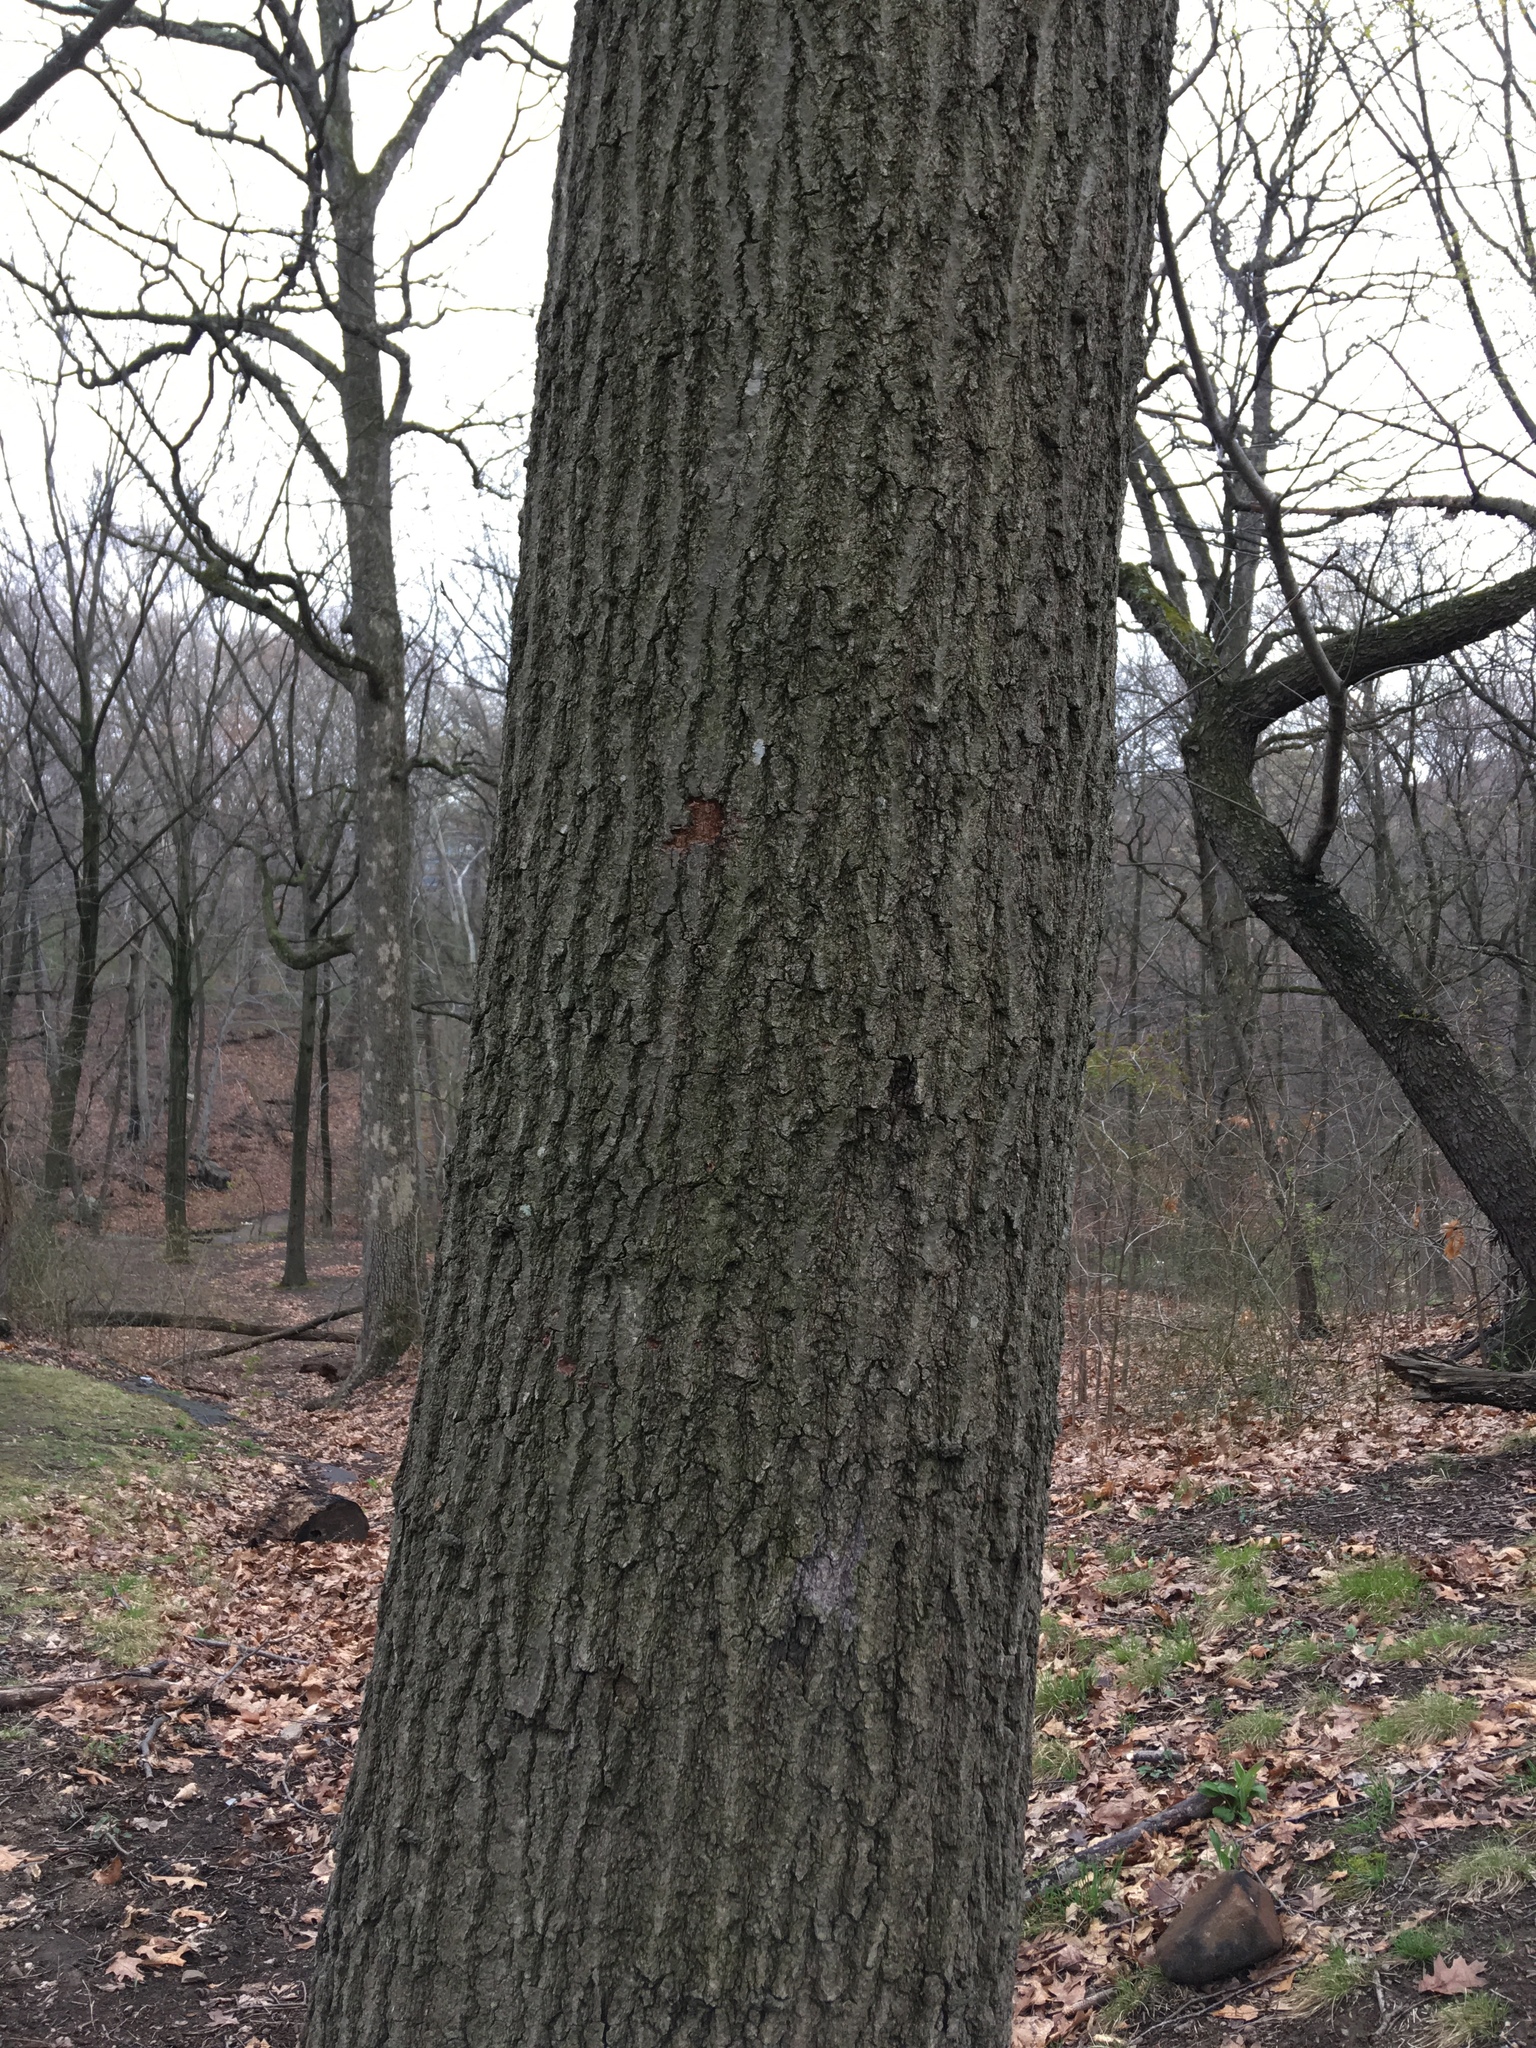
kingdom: Plantae
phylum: Tracheophyta
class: Magnoliopsida
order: Fagales
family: Fagaceae
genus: Quercus
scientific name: Quercus rubra
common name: Red oak
